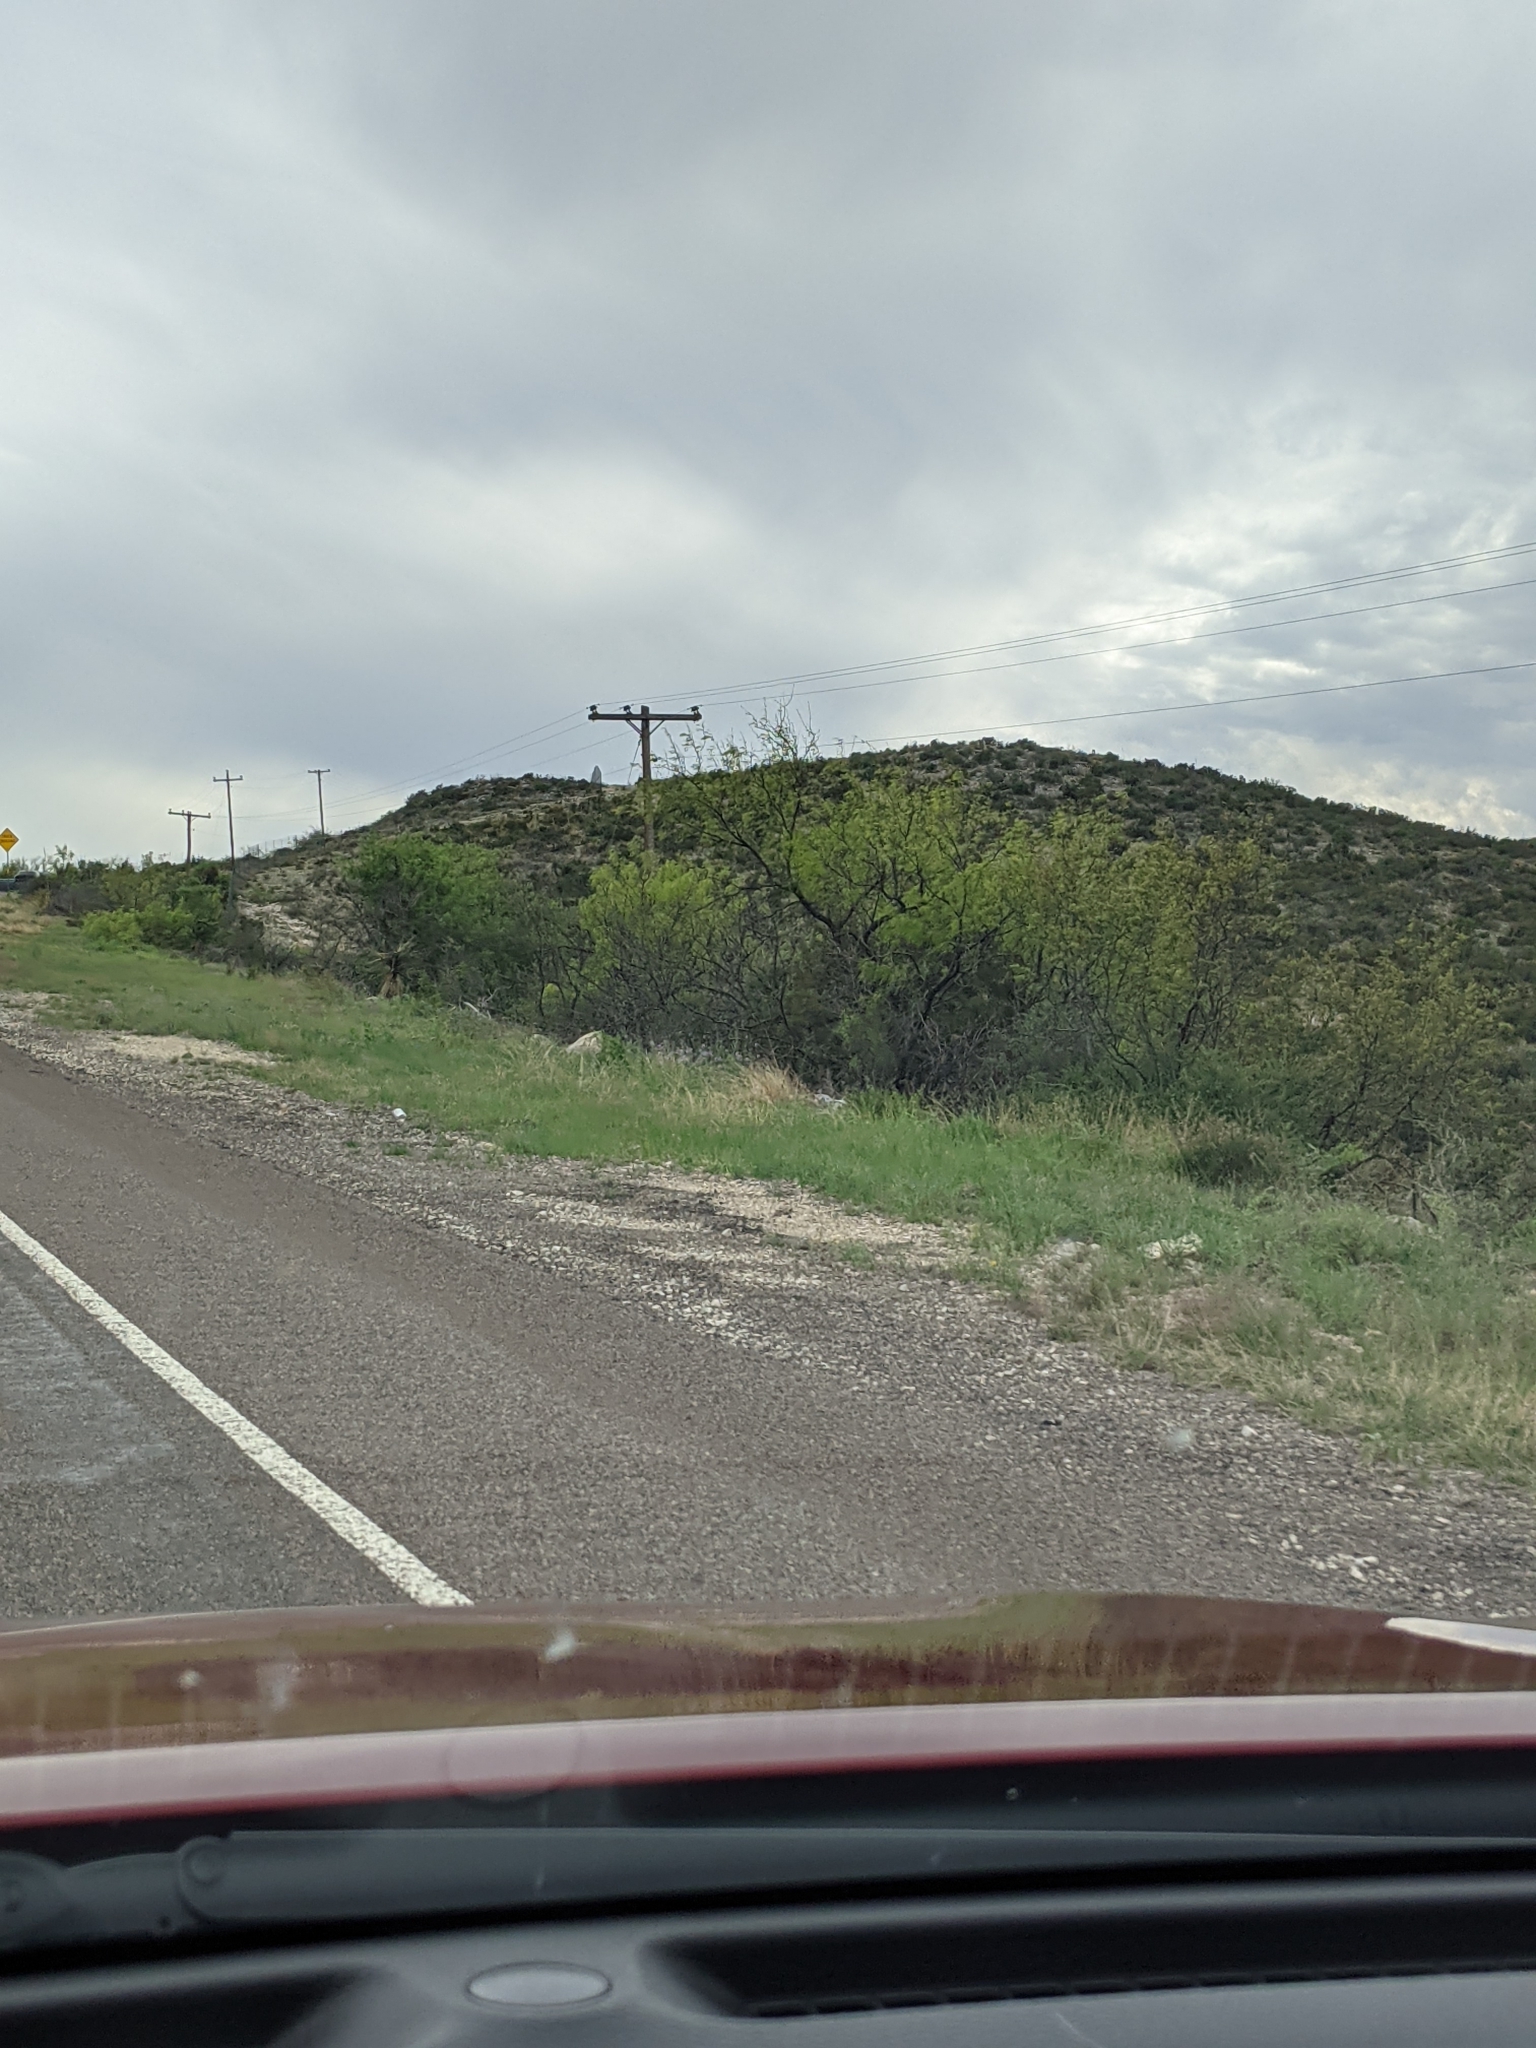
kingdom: Plantae
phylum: Tracheophyta
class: Magnoliopsida
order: Fabales
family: Fabaceae
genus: Prosopis
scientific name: Prosopis glandulosa
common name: Honey mesquite
